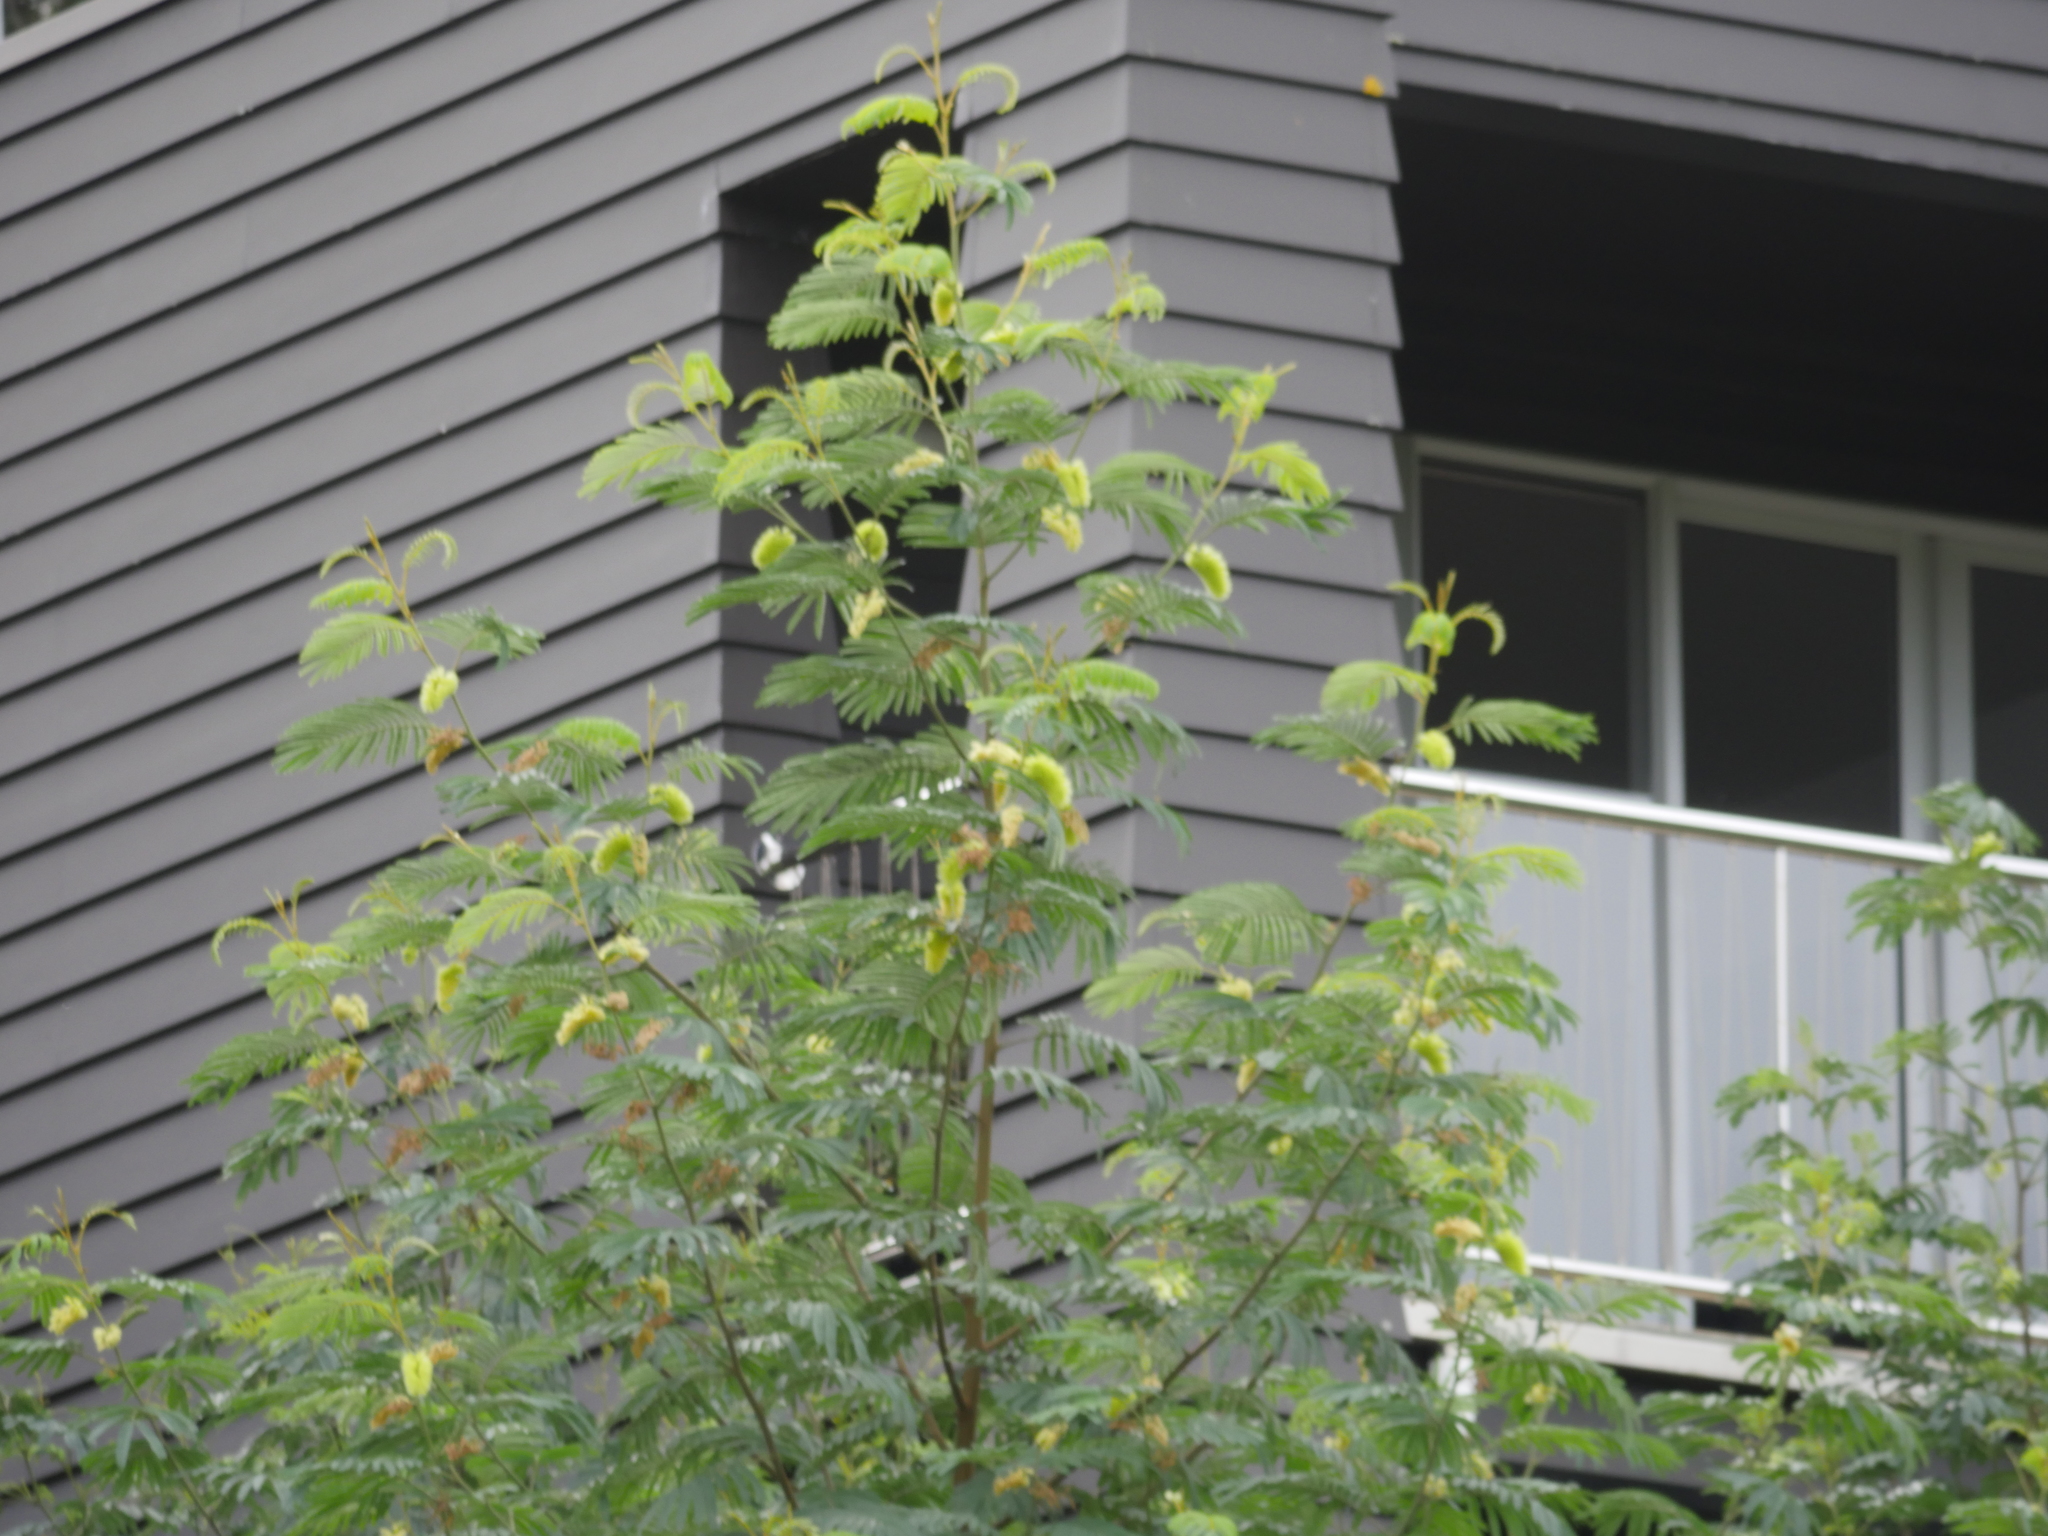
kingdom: Plantae
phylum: Tracheophyta
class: Magnoliopsida
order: Fabales
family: Fabaceae
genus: Paraserianthes
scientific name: Paraserianthes lophantha
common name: Plume albizia
